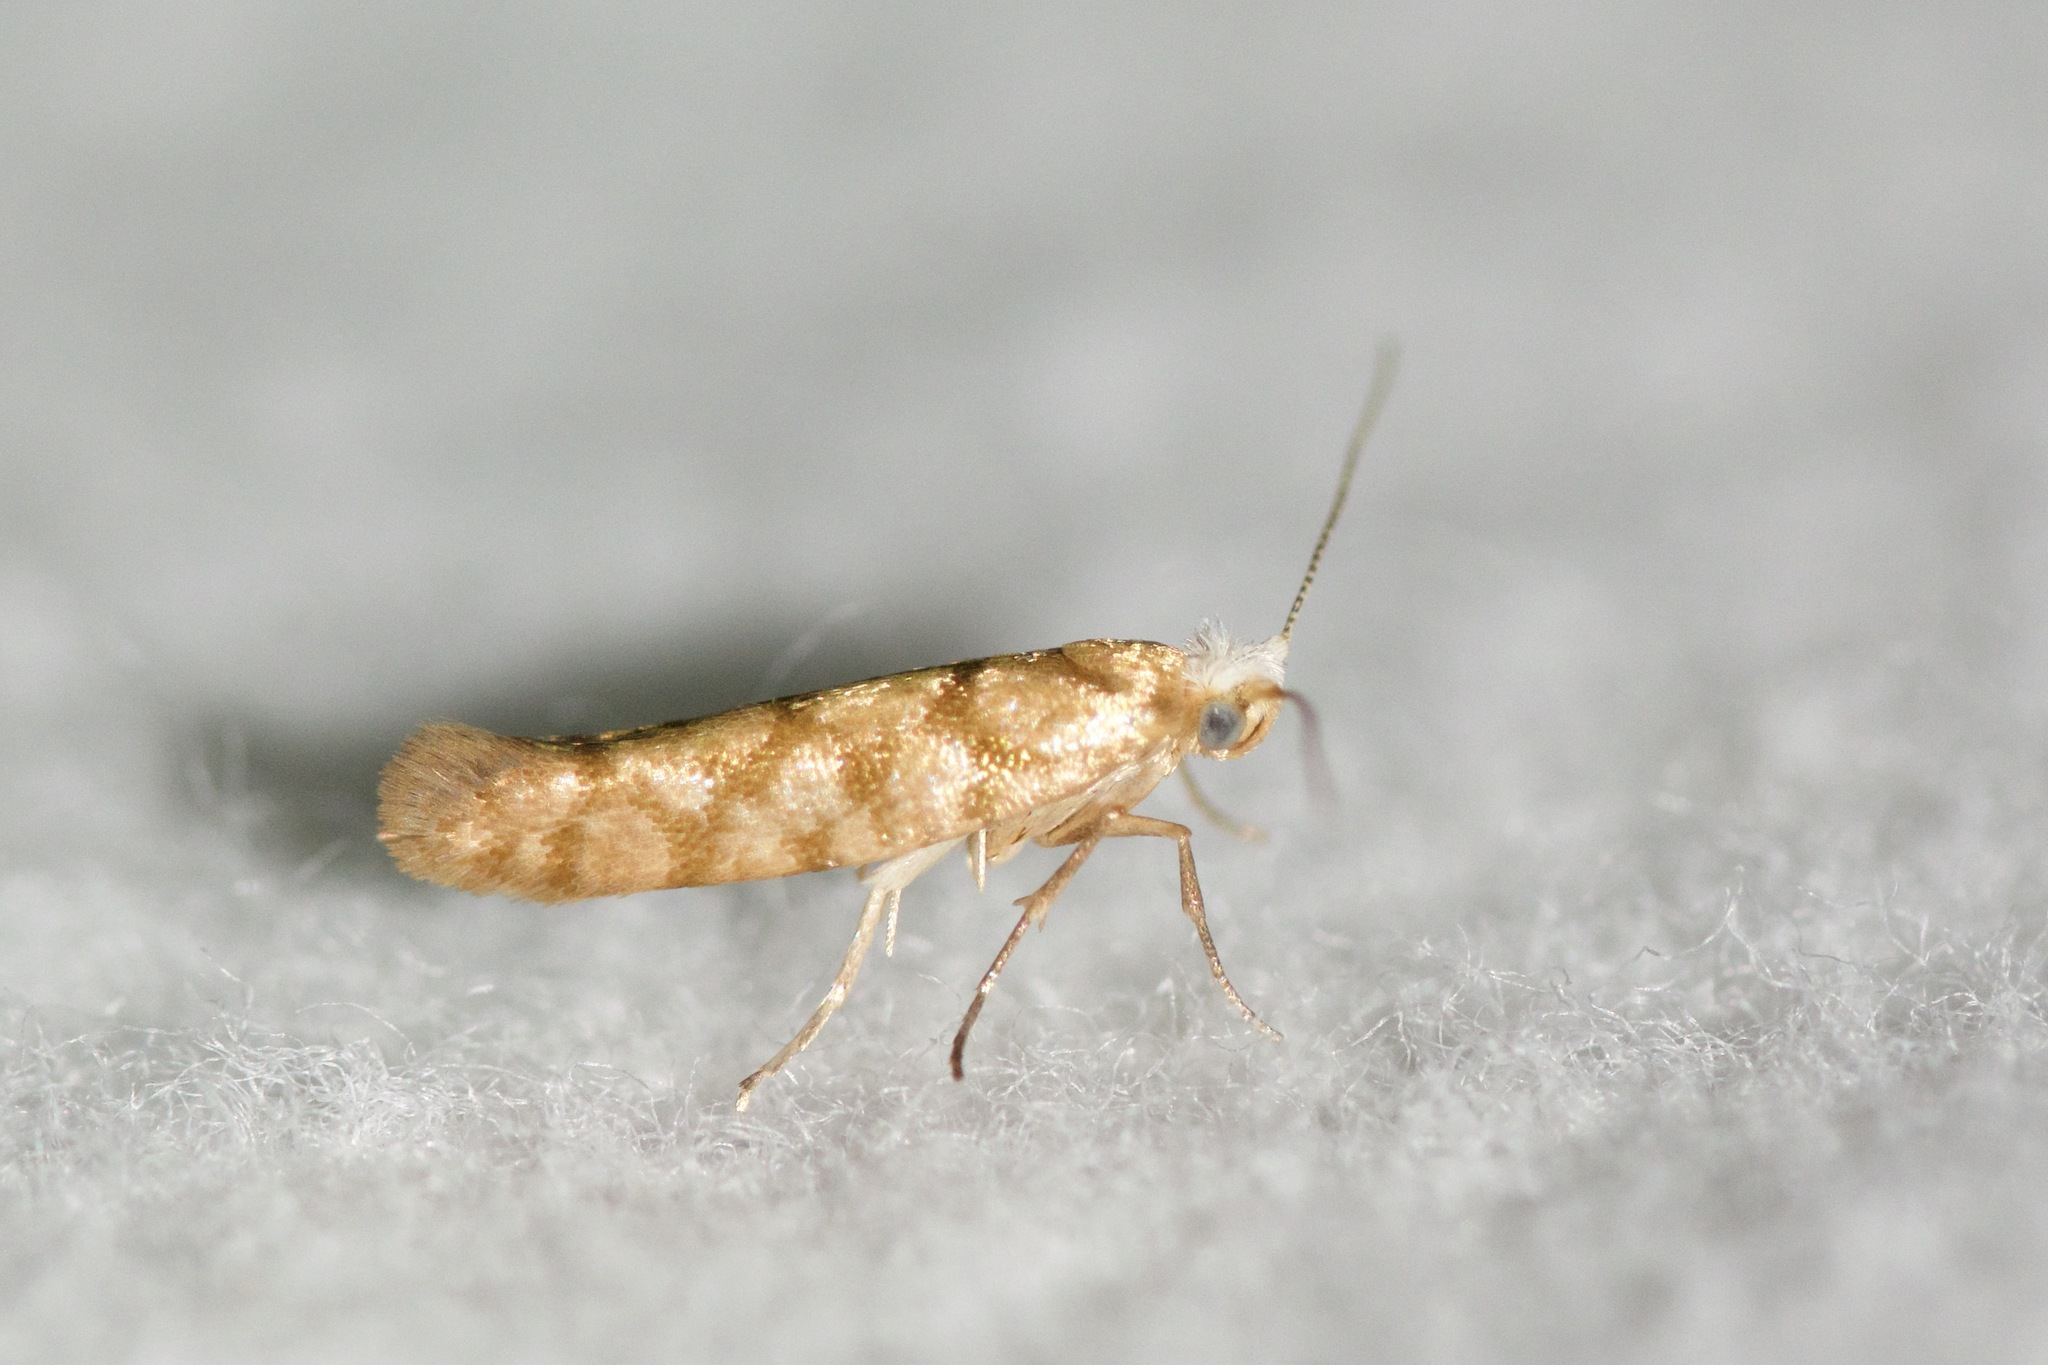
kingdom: Animalia
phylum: Arthropoda
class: Insecta
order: Lepidoptera
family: Argyresthiidae
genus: Argyresthia
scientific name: Argyresthia alternatella
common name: Juniper seed moth
